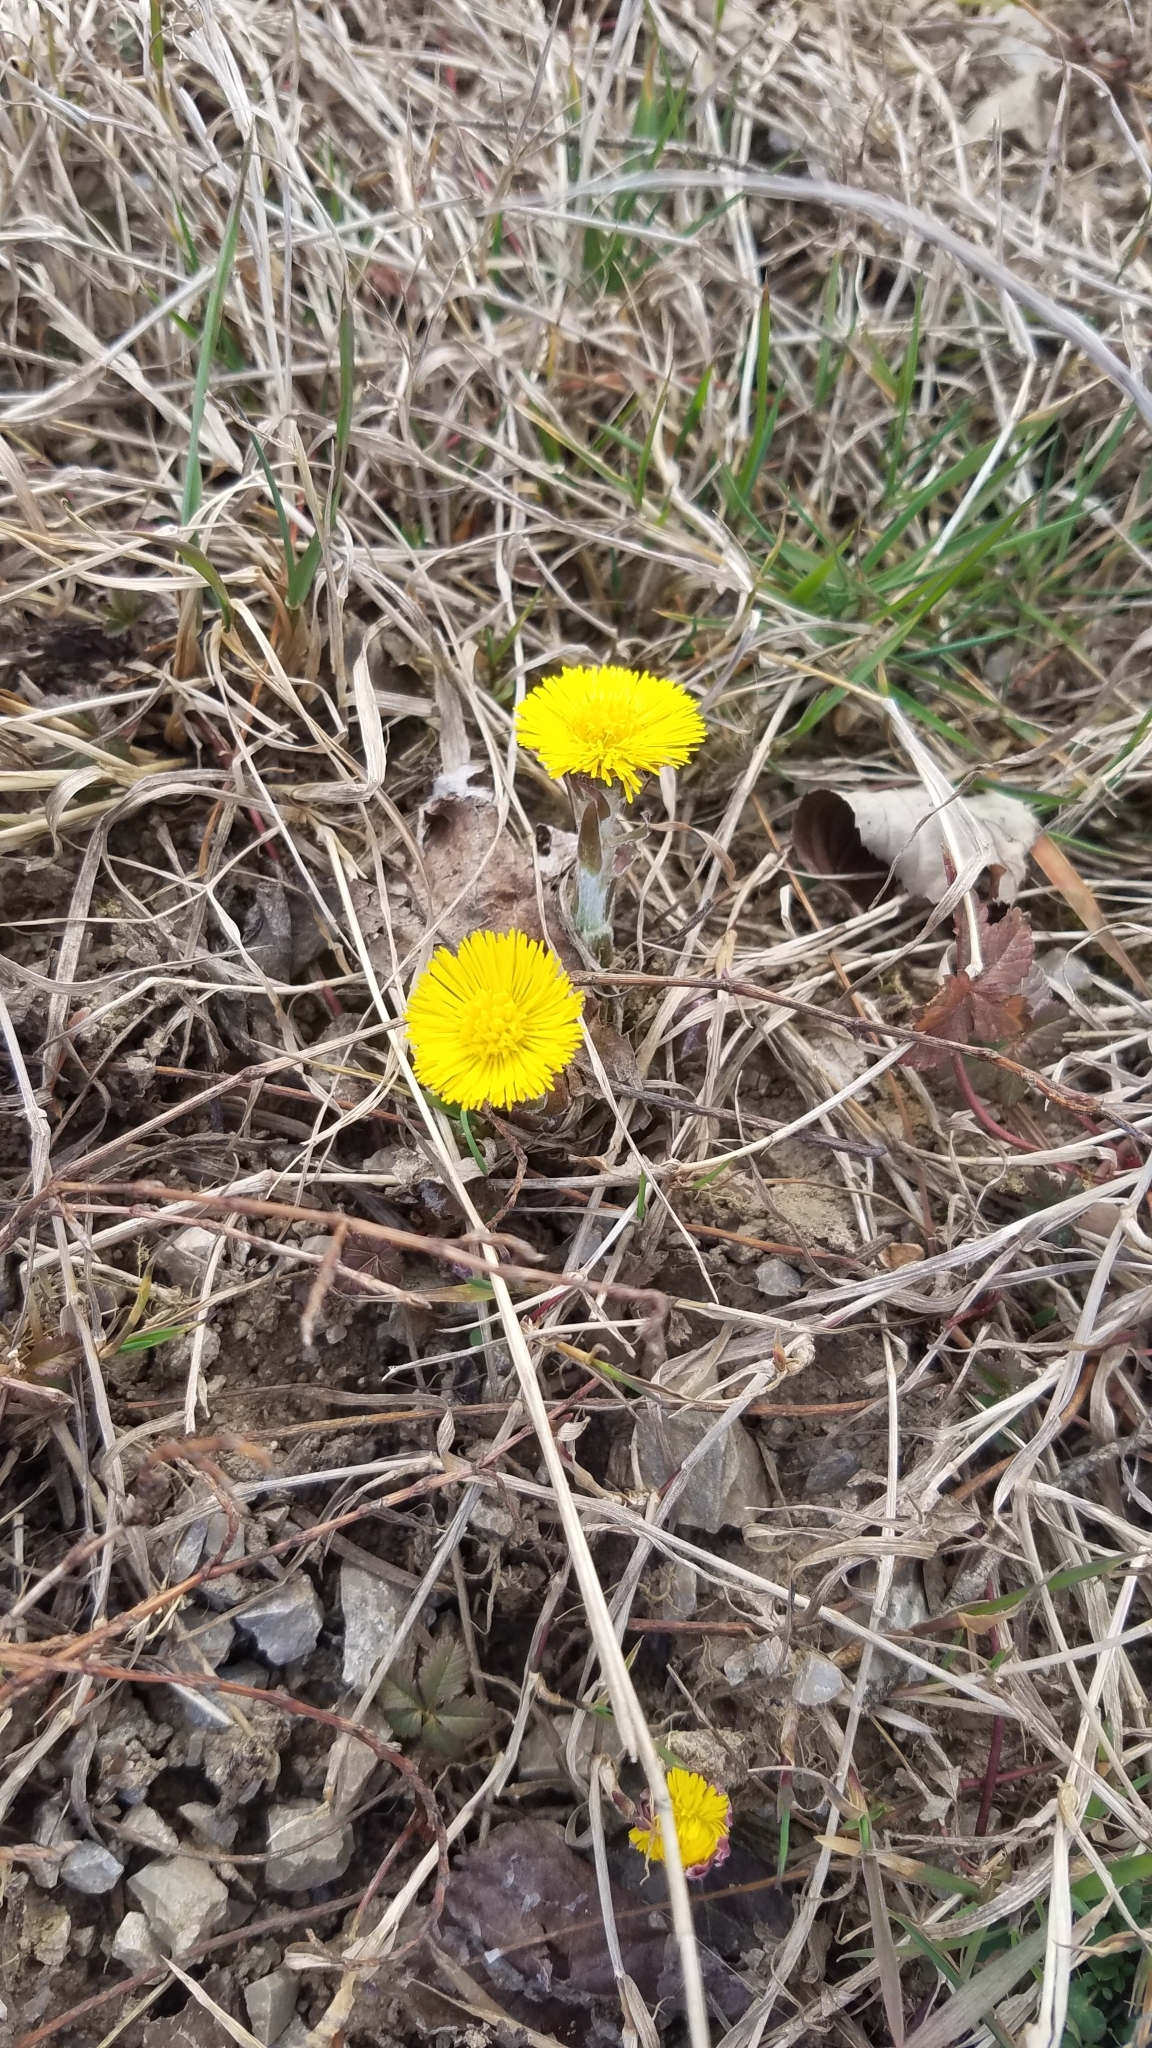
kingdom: Plantae
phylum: Tracheophyta
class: Magnoliopsida
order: Asterales
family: Asteraceae
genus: Tussilago
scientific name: Tussilago farfara
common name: Coltsfoot
